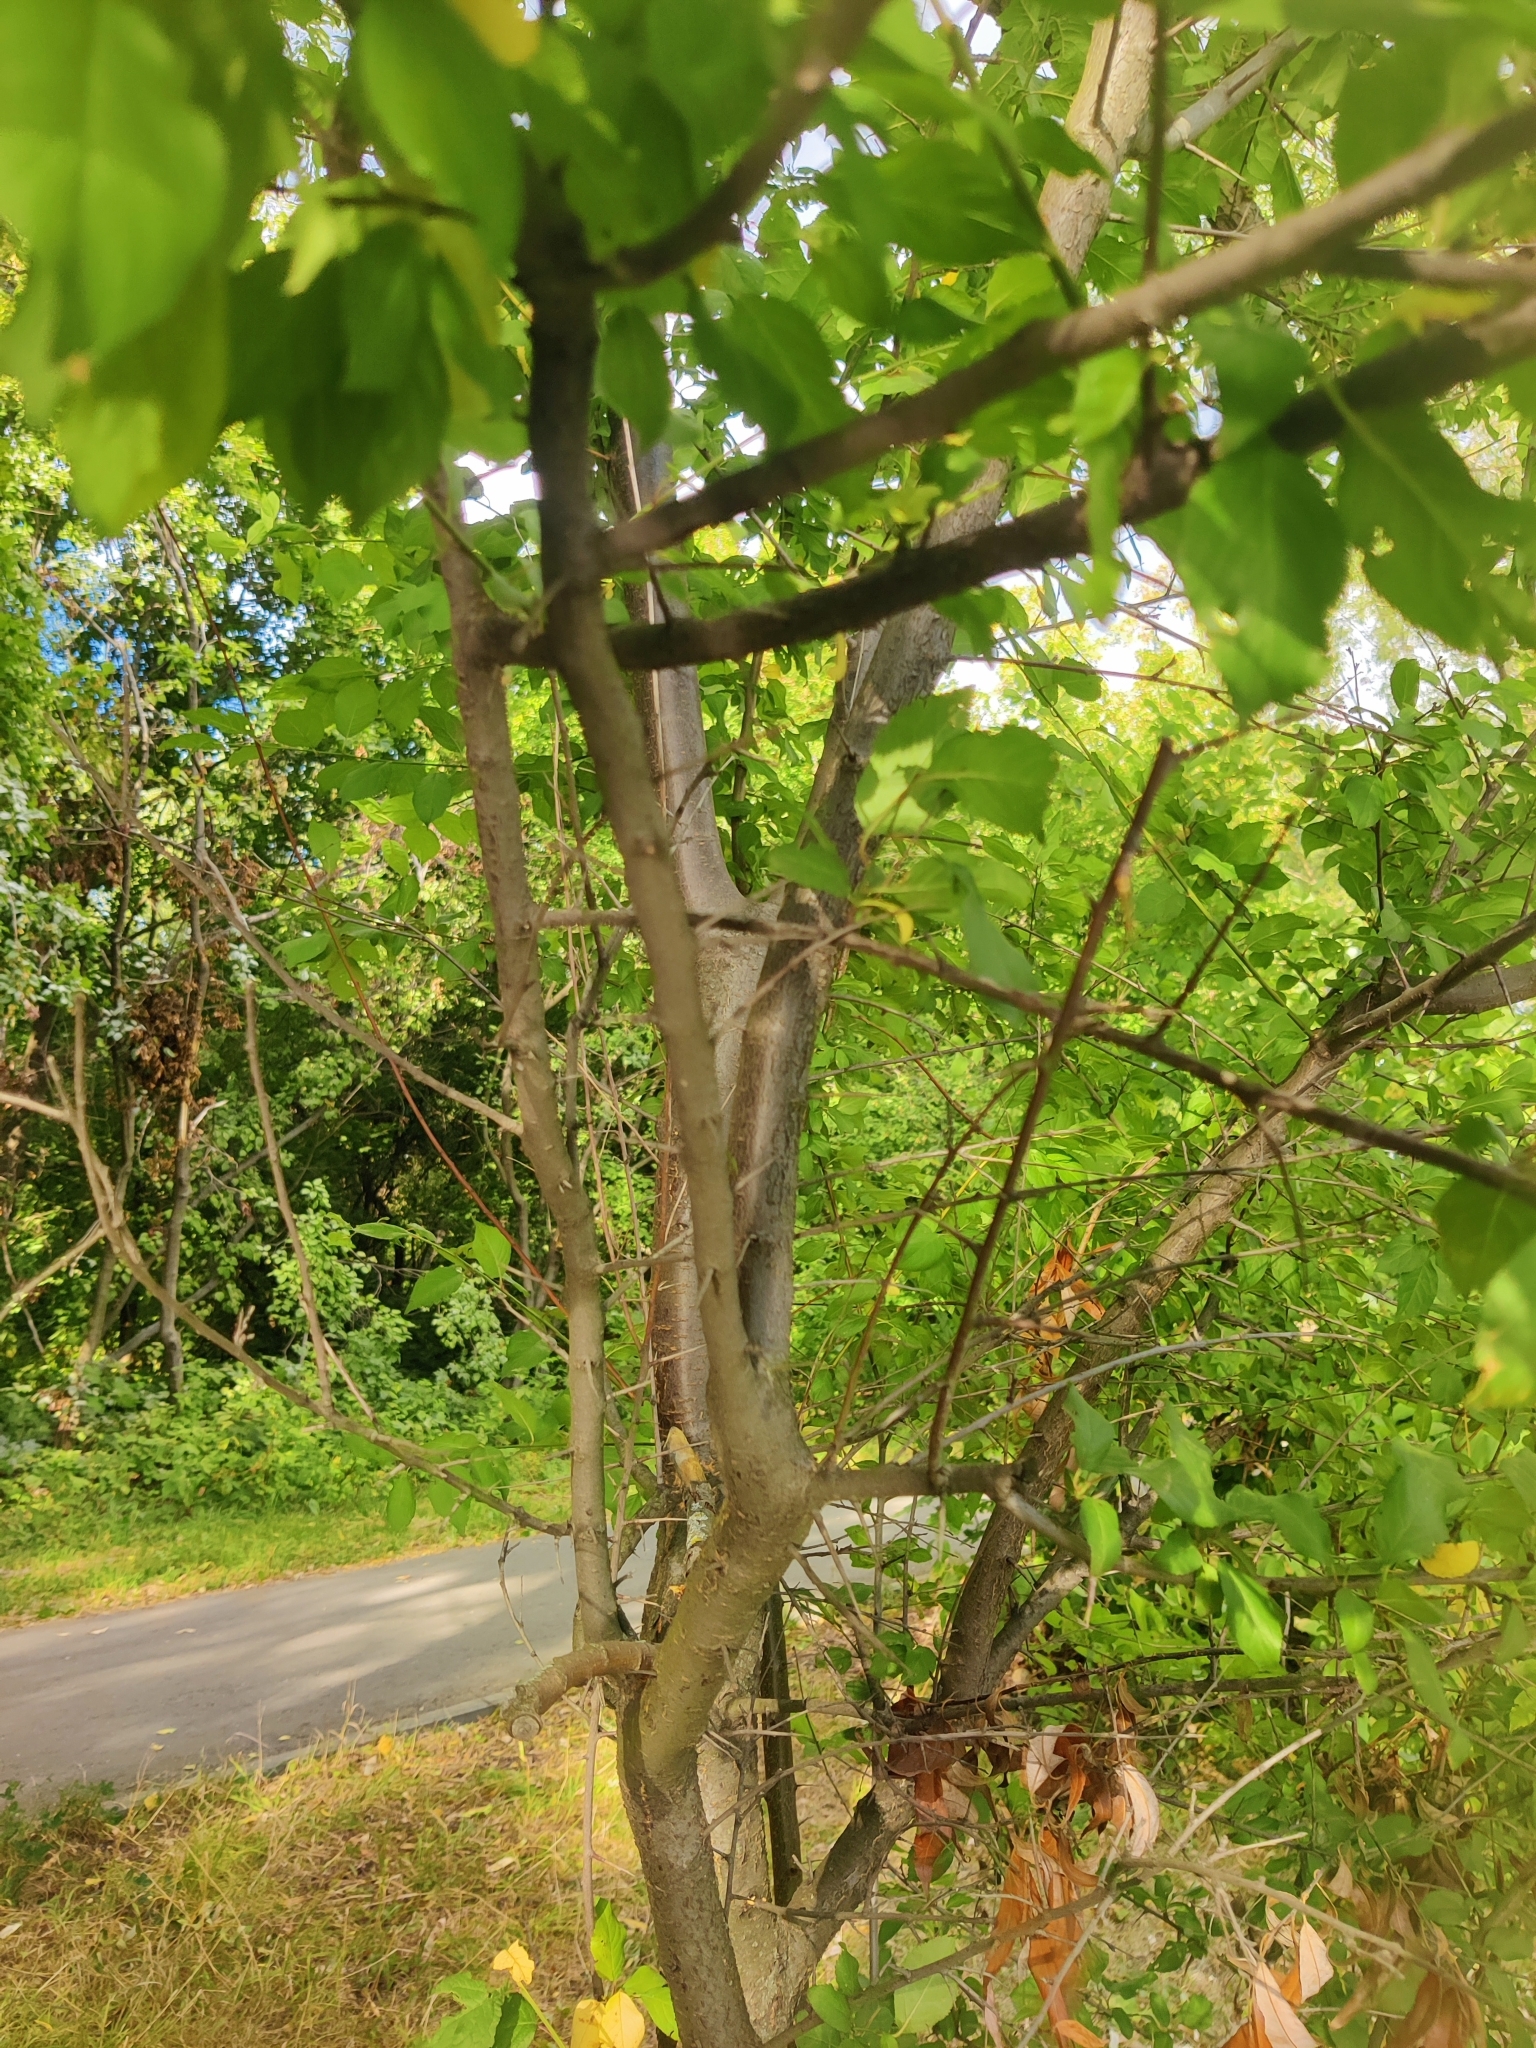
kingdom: Plantae
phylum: Tracheophyta
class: Magnoliopsida
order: Rosales
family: Rosaceae
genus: Prunus
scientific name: Prunus spinosa
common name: Blackthorn
